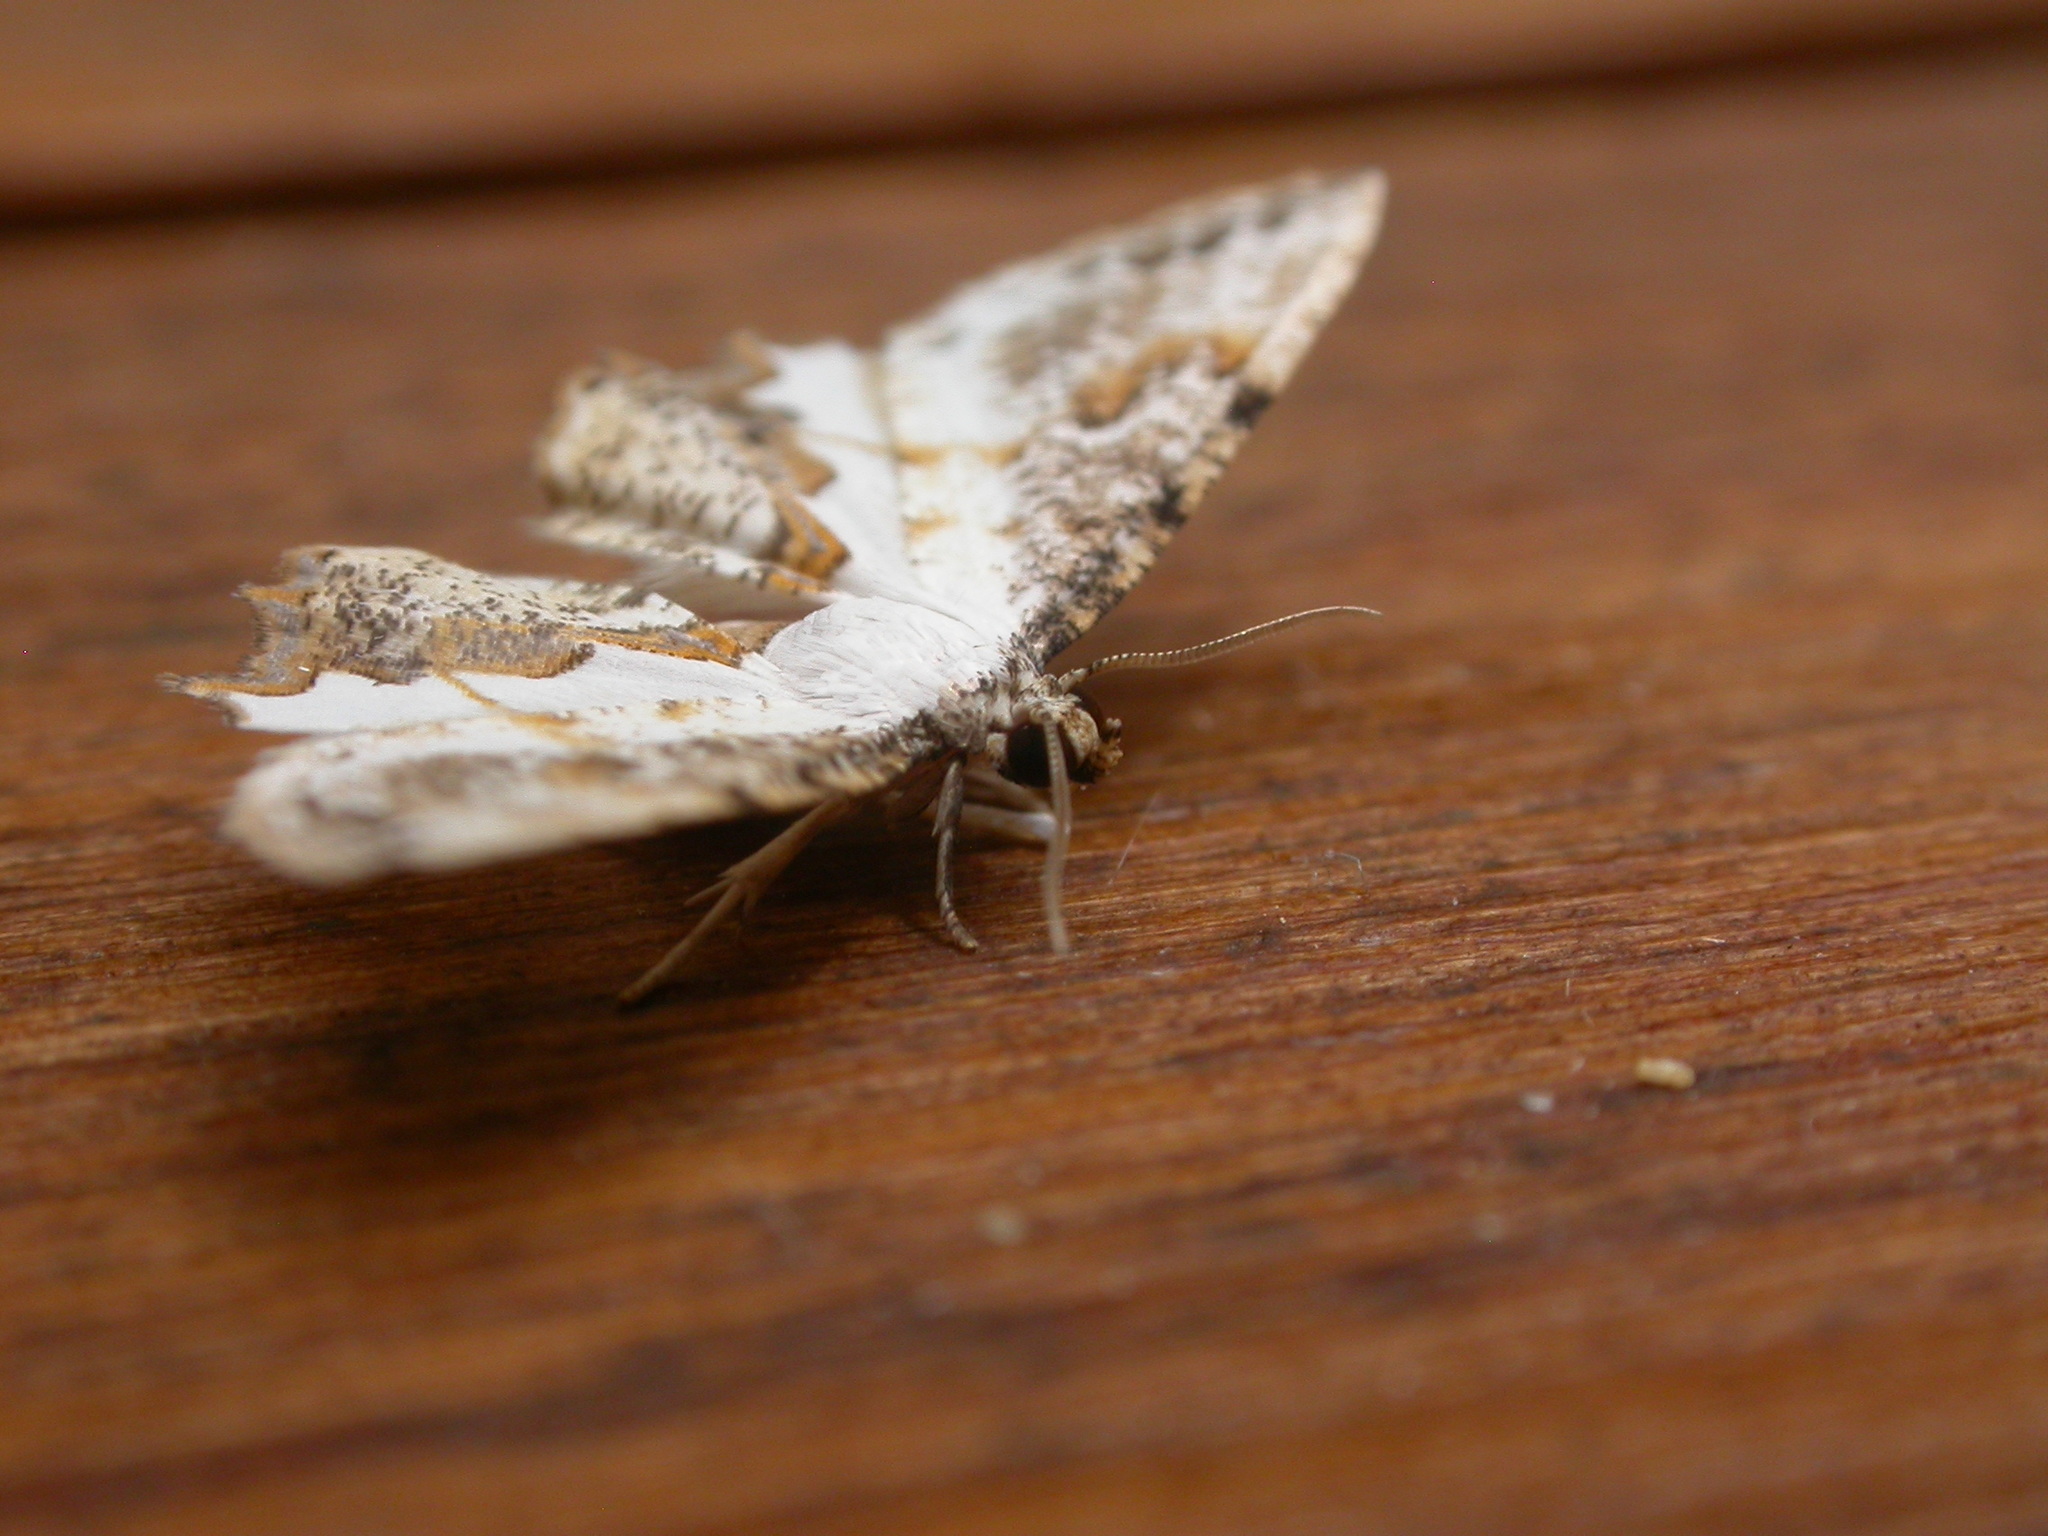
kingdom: Animalia
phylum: Arthropoda
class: Insecta
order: Lepidoptera
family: Uraniidae
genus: Europlema
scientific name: Europlema desistaria
